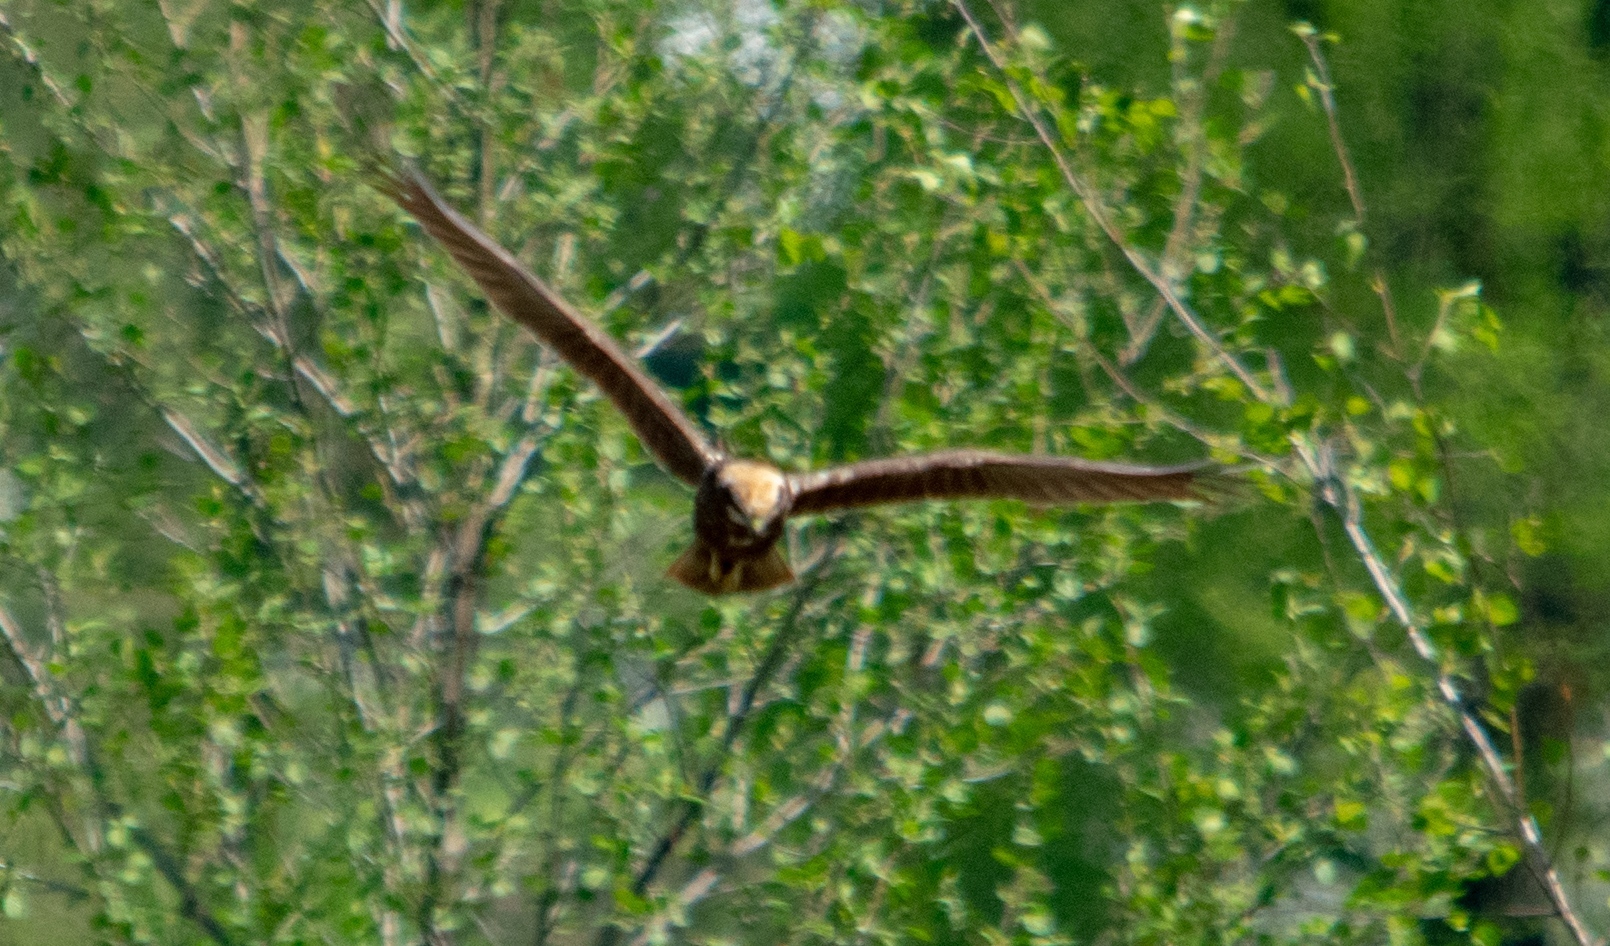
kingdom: Animalia
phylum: Chordata
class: Aves
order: Accipitriformes
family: Accipitridae
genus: Circus
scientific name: Circus aeruginosus
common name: Western marsh harrier
